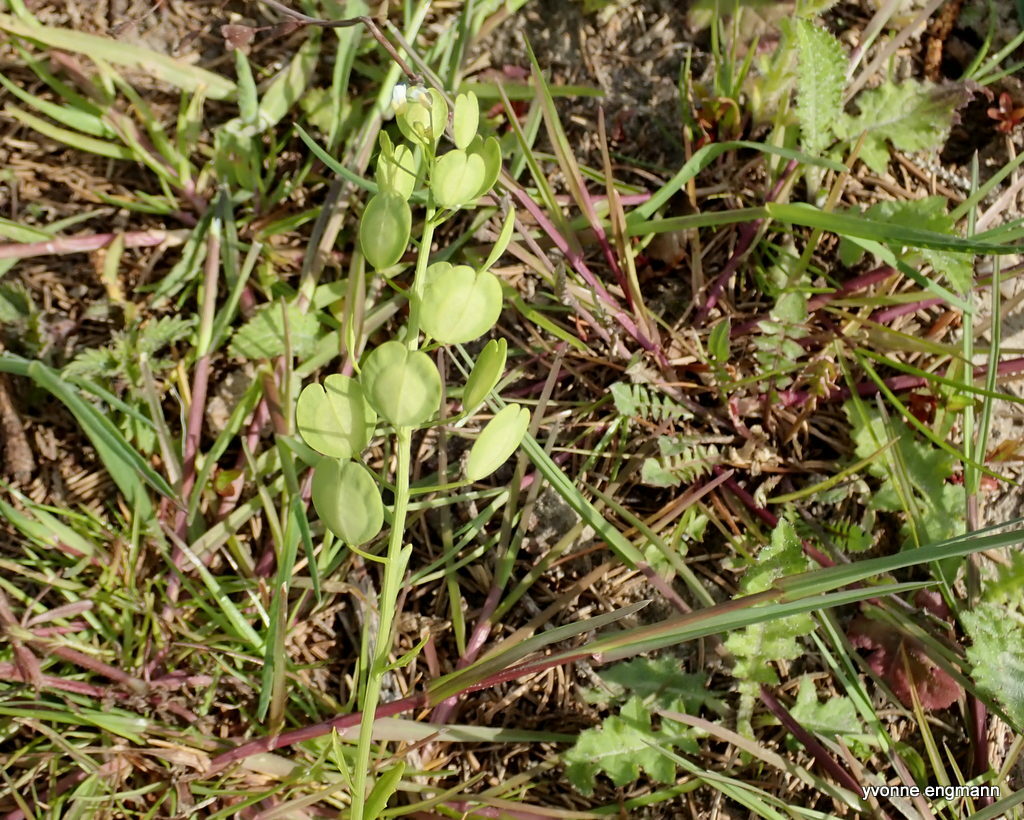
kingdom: Plantae
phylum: Tracheophyta
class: Magnoliopsida
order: Brassicales
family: Brassicaceae
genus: Thlaspi
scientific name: Thlaspi arvense
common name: Field pennycress
